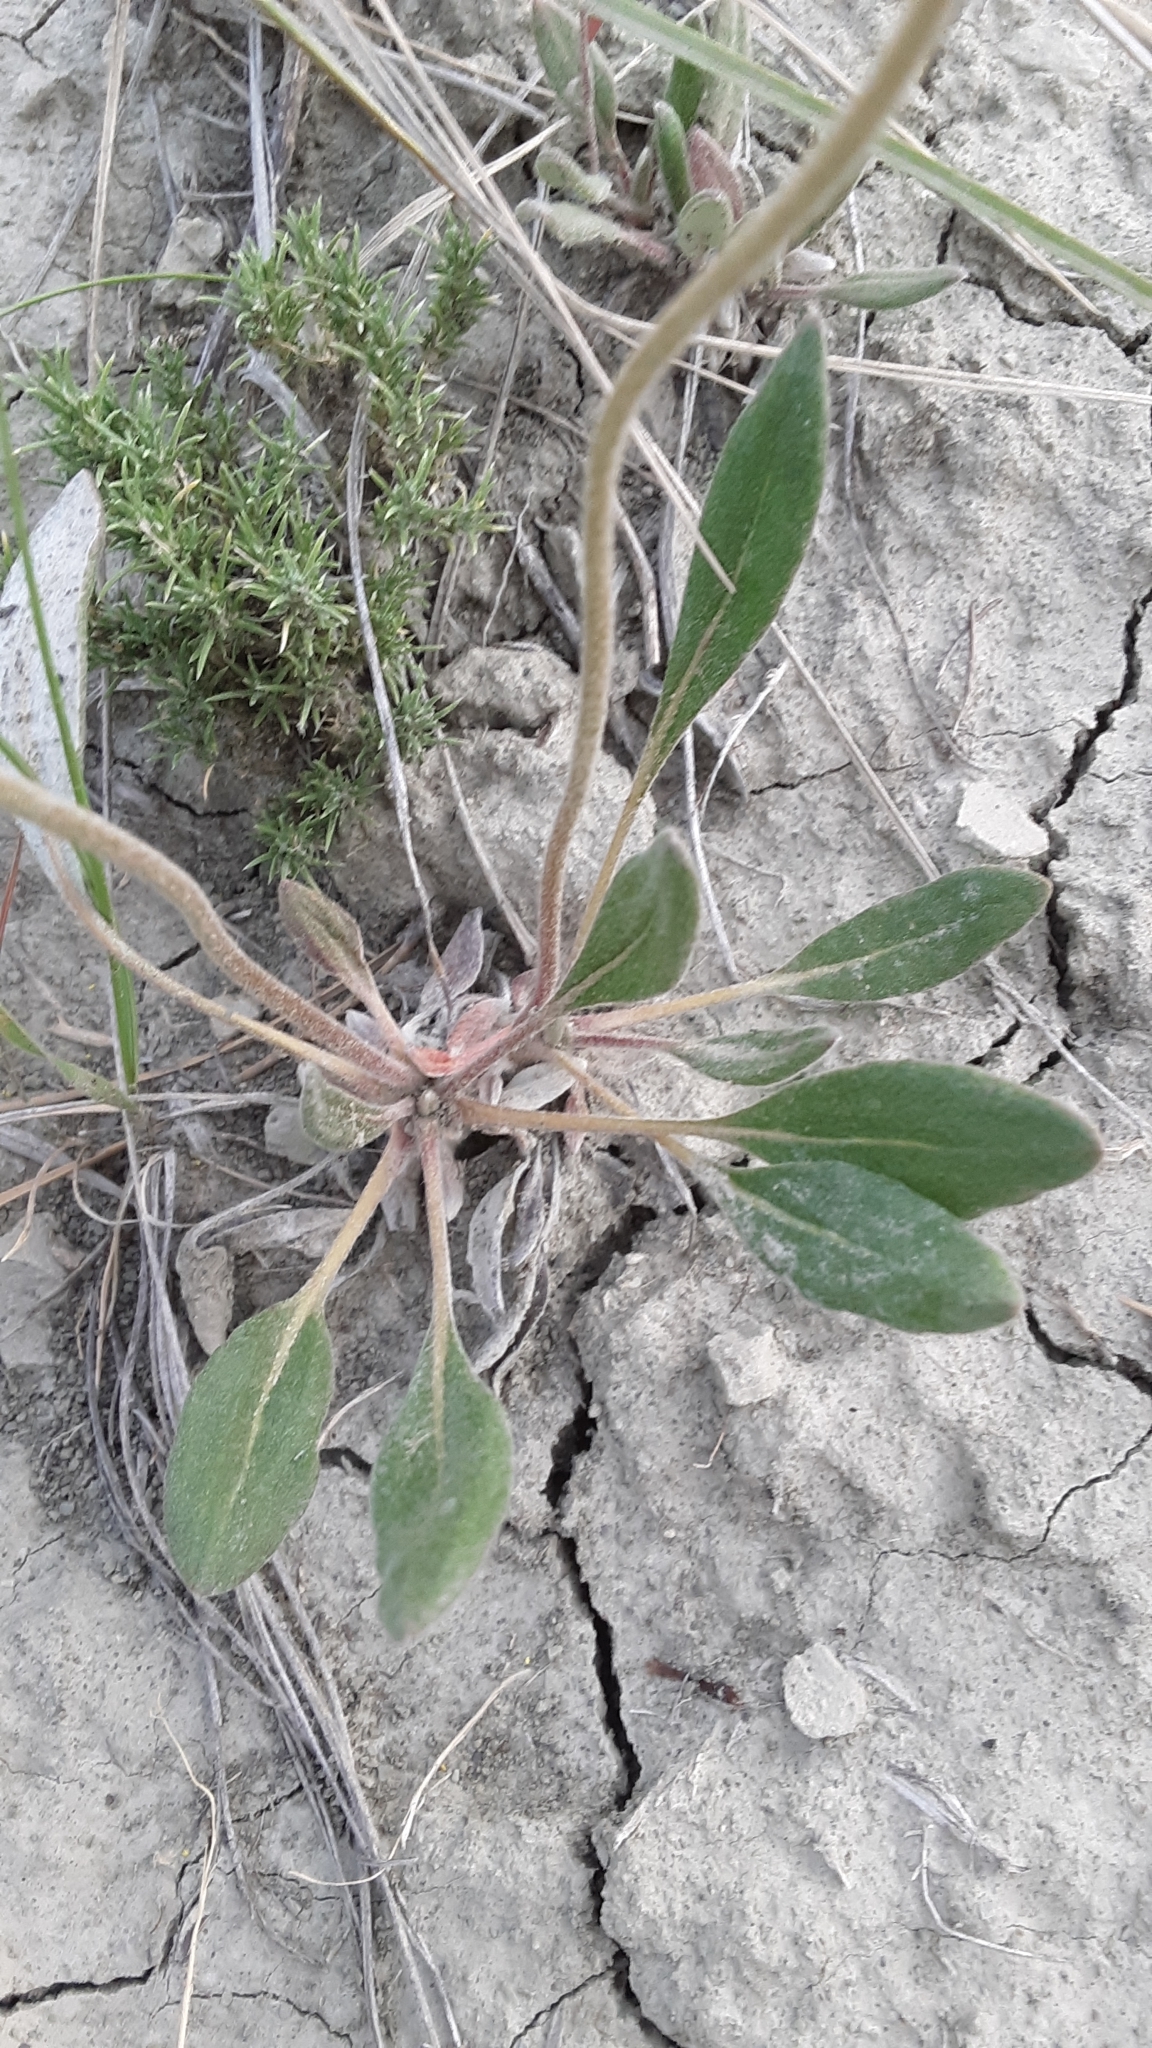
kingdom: Plantae
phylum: Tracheophyta
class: Magnoliopsida
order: Caryophyllales
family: Polygonaceae
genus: Eriogonum
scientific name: Eriogonum flavum
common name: Alpine golden wild buckwheat
